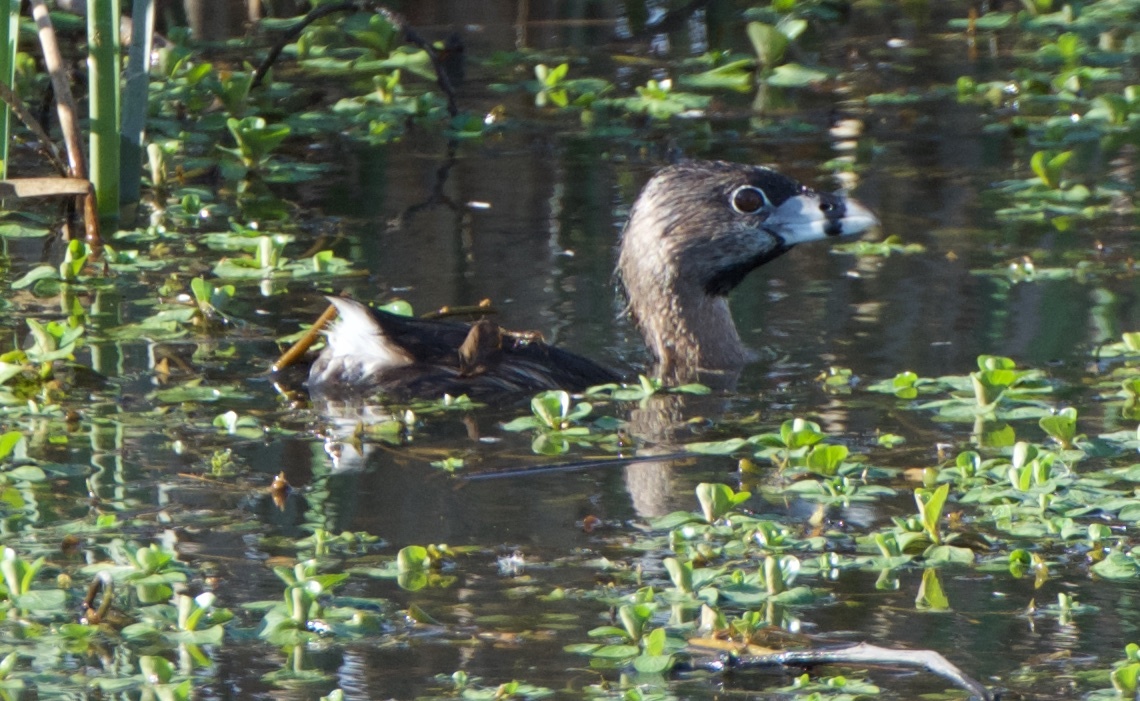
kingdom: Animalia
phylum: Chordata
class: Aves
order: Podicipediformes
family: Podicipedidae
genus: Podilymbus
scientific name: Podilymbus podiceps
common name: Pied-billed grebe
